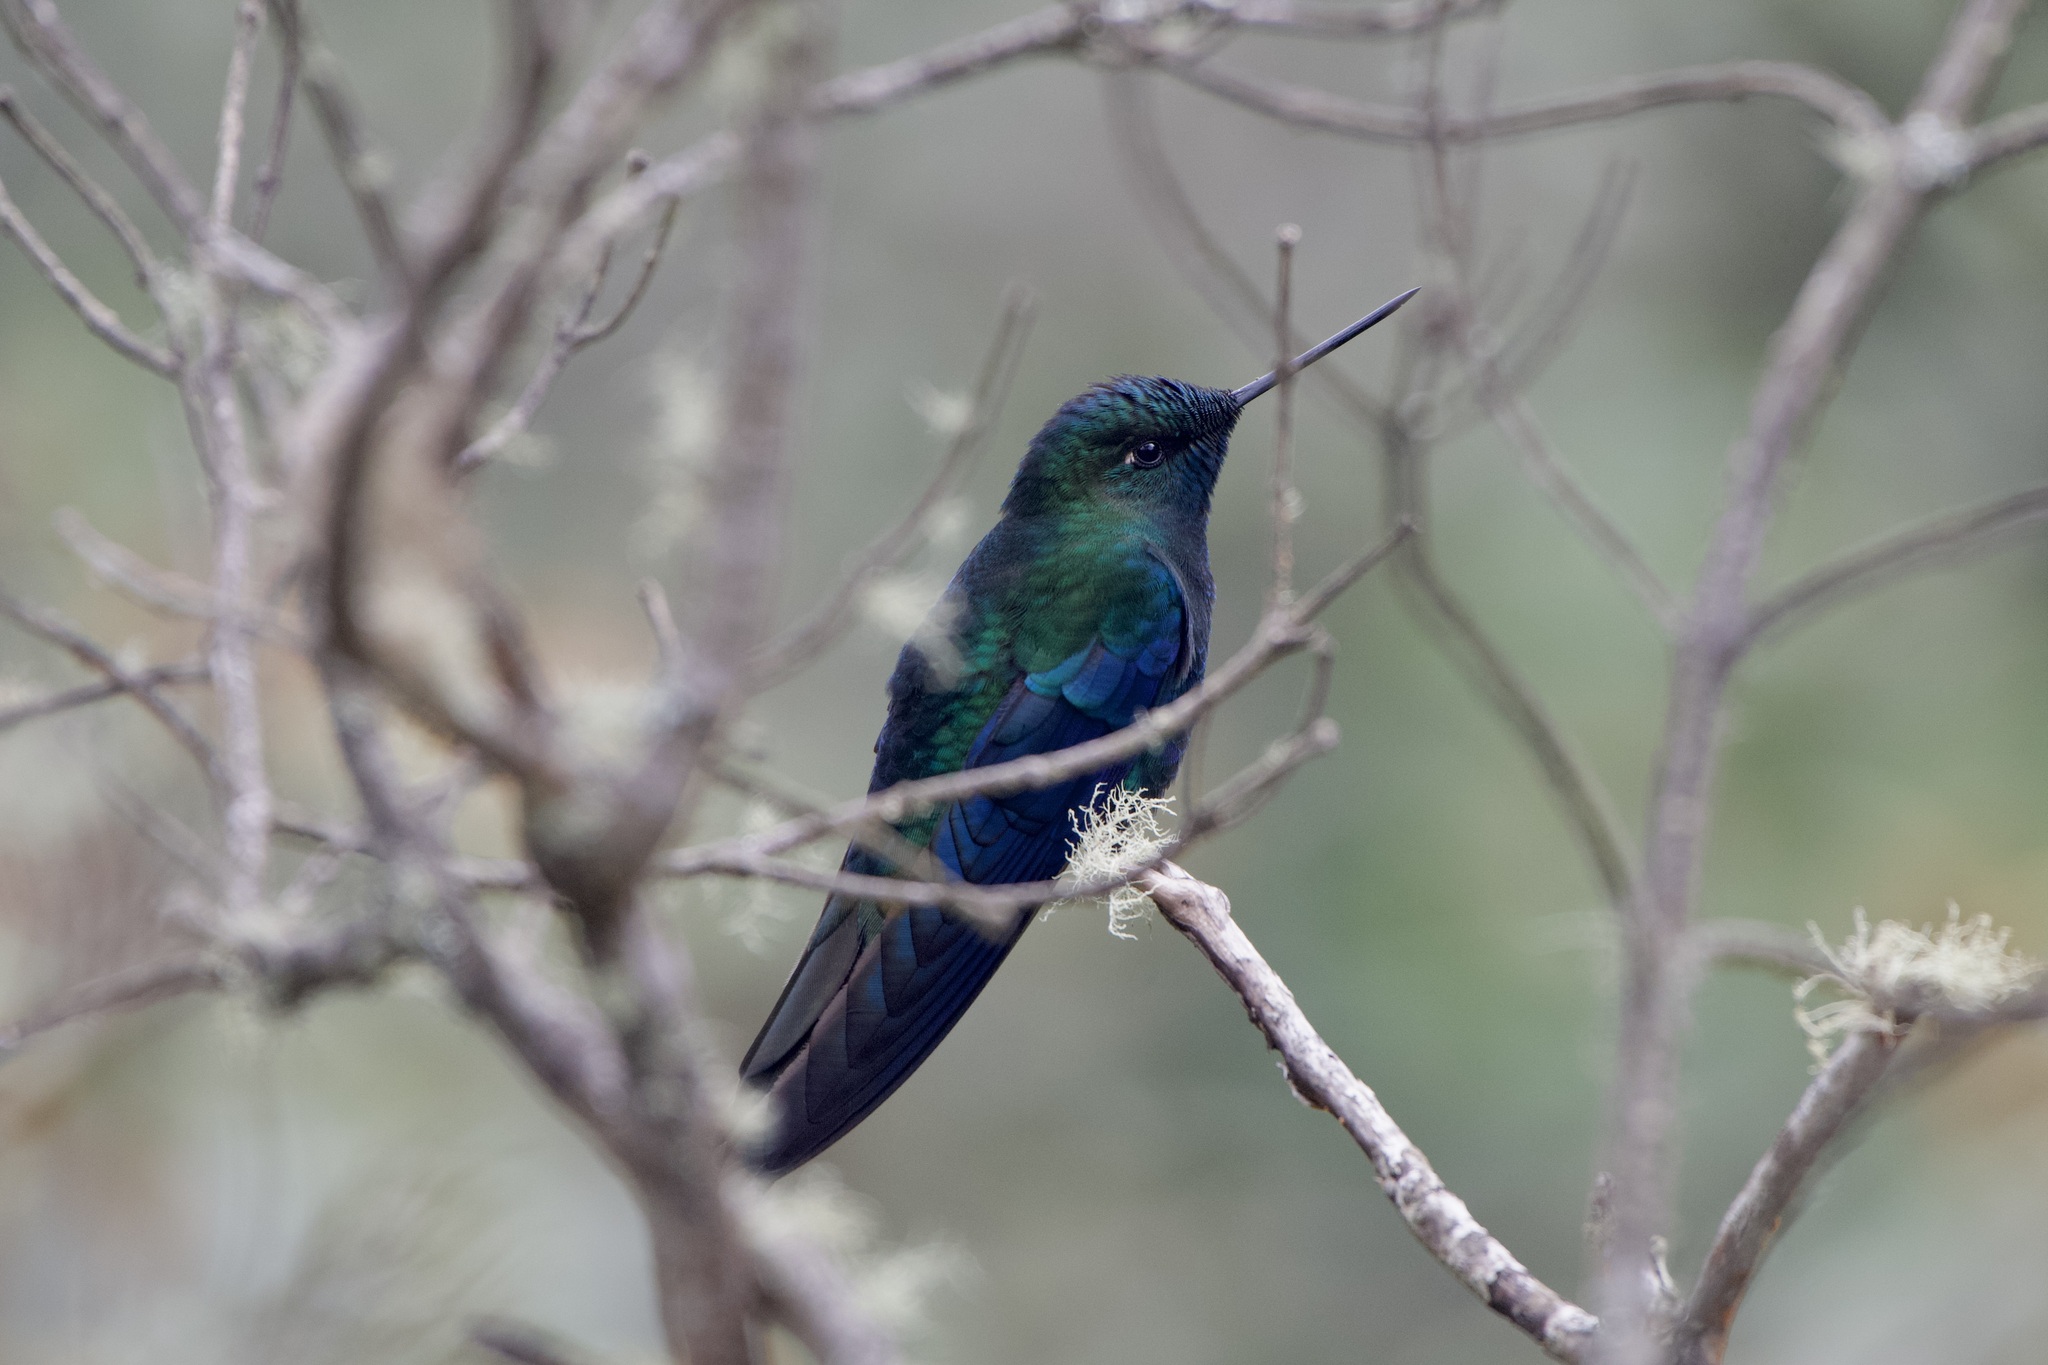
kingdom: Animalia
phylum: Chordata
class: Aves
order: Apodiformes
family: Trochilidae
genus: Pterophanes
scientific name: Pterophanes cyanopterus
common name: Great sapphirewing
